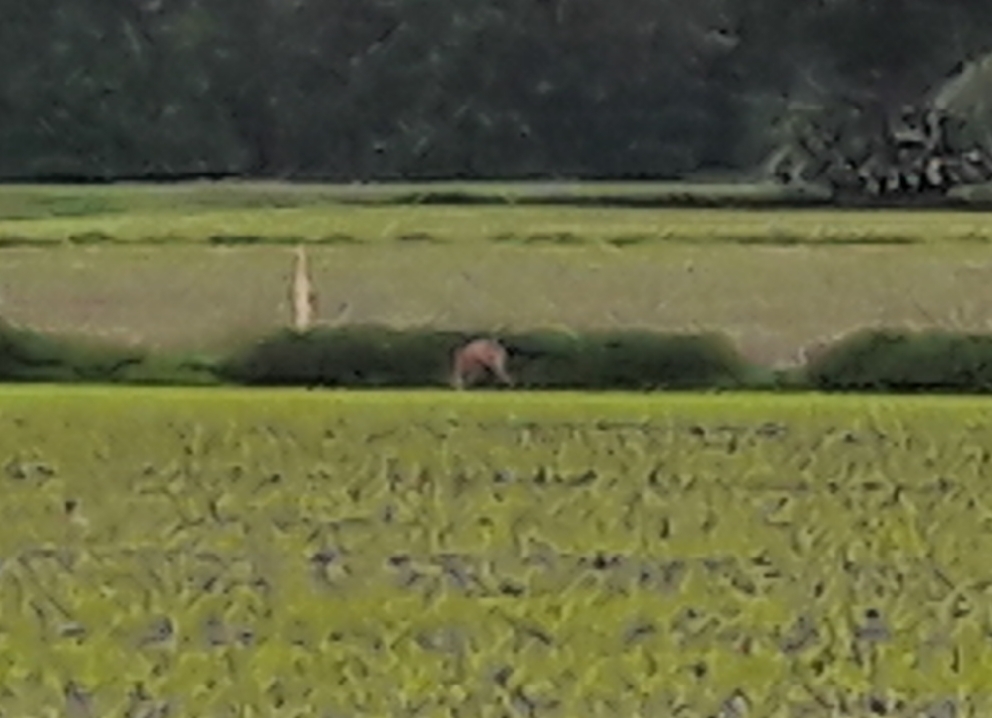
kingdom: Animalia
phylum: Chordata
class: Mammalia
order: Artiodactyla
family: Cervidae
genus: Capreolus
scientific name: Capreolus capreolus
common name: Western roe deer
